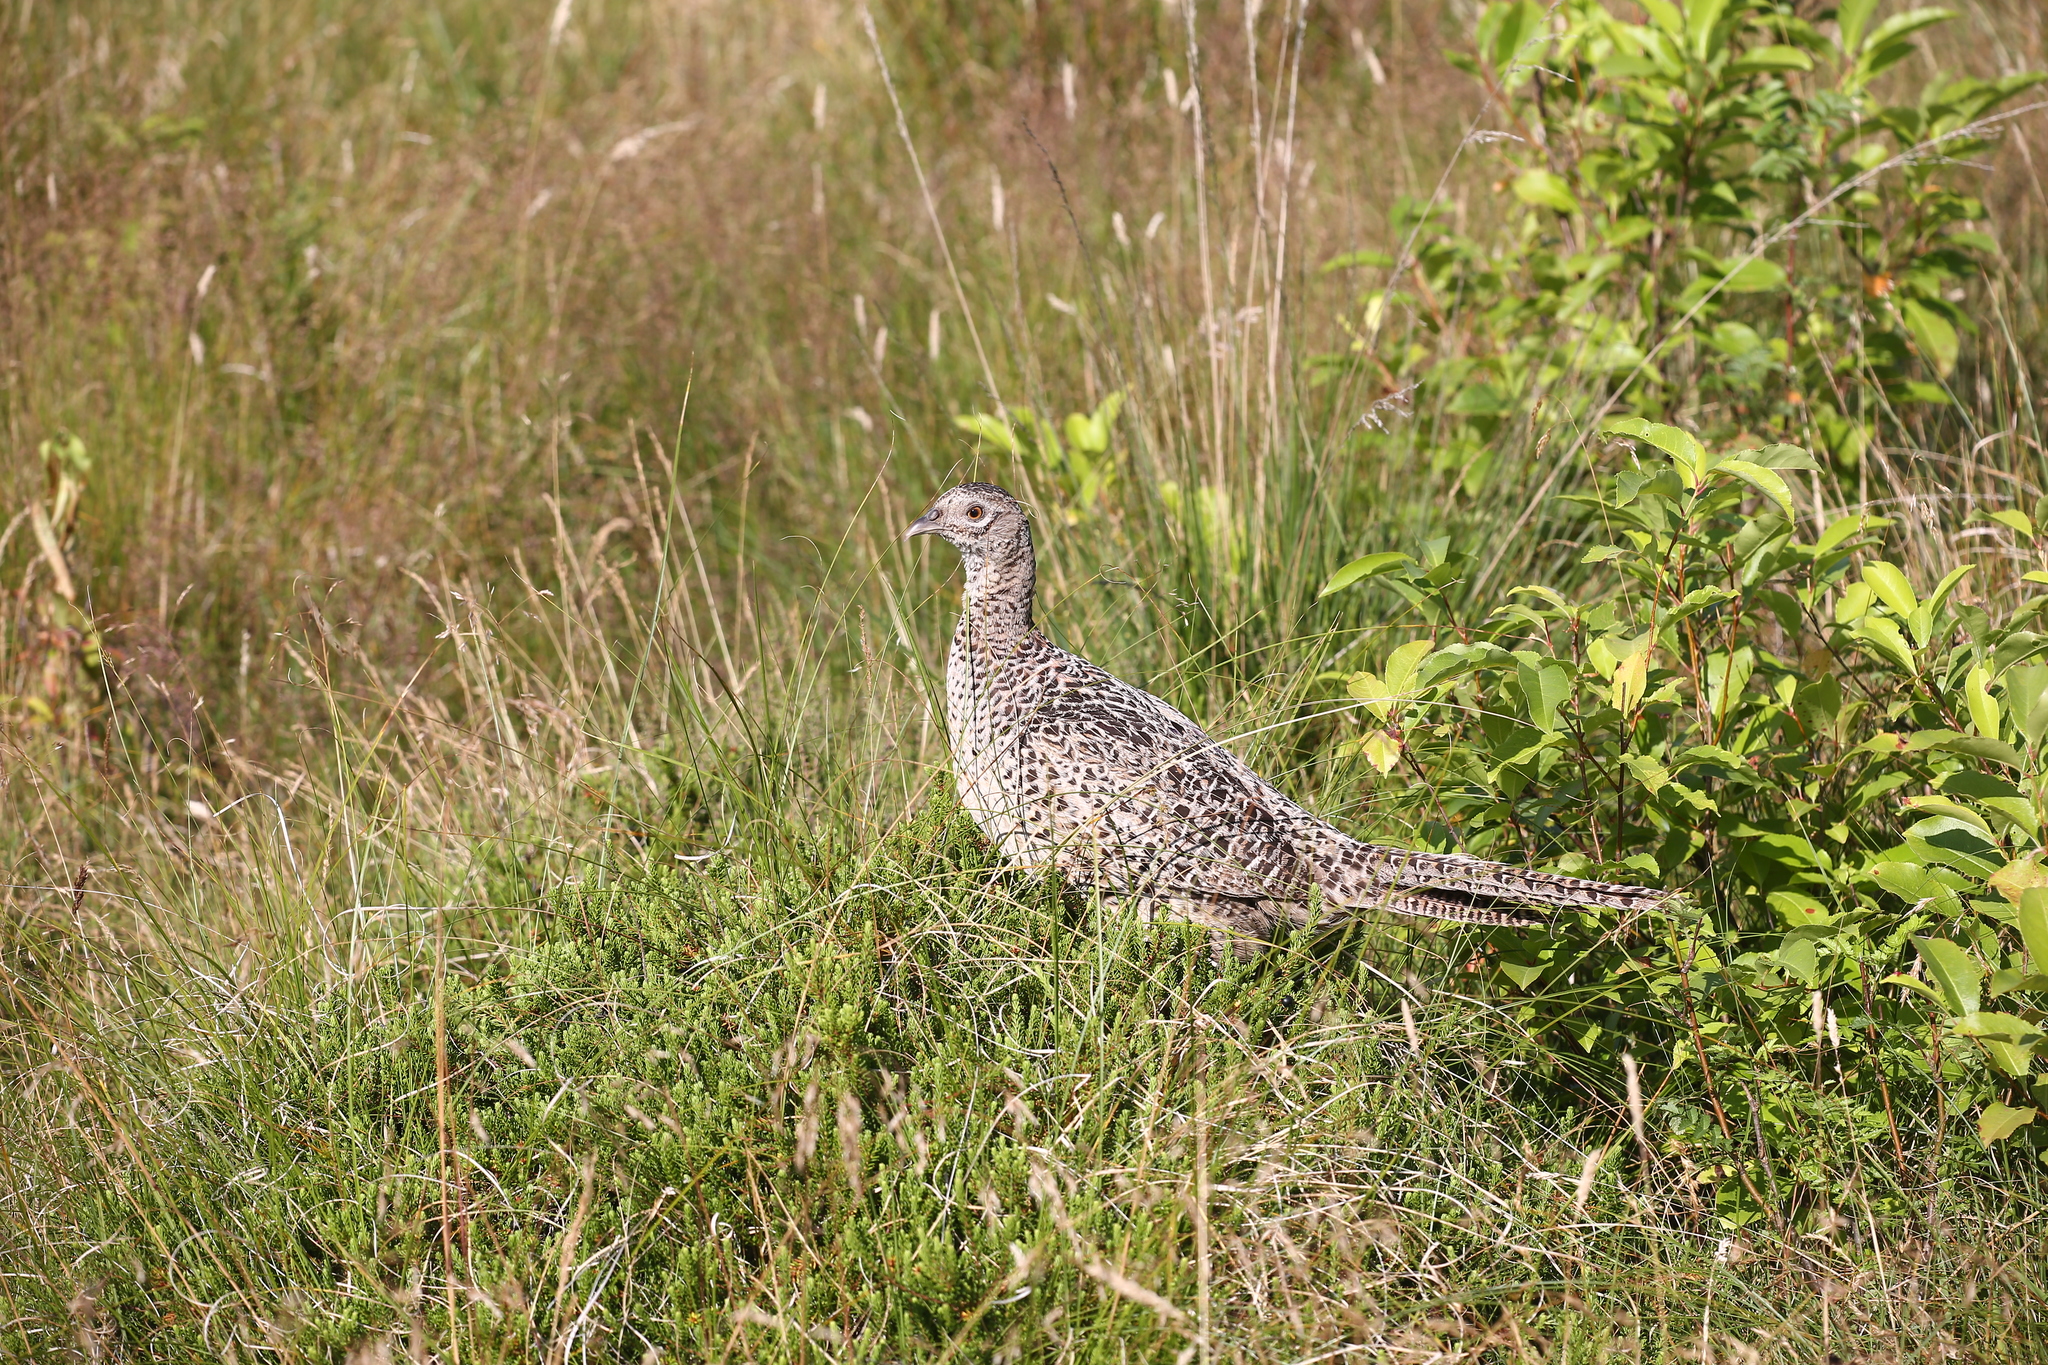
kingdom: Animalia
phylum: Chordata
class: Aves
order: Galliformes
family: Phasianidae
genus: Phasianus
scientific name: Phasianus colchicus
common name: Common pheasant
